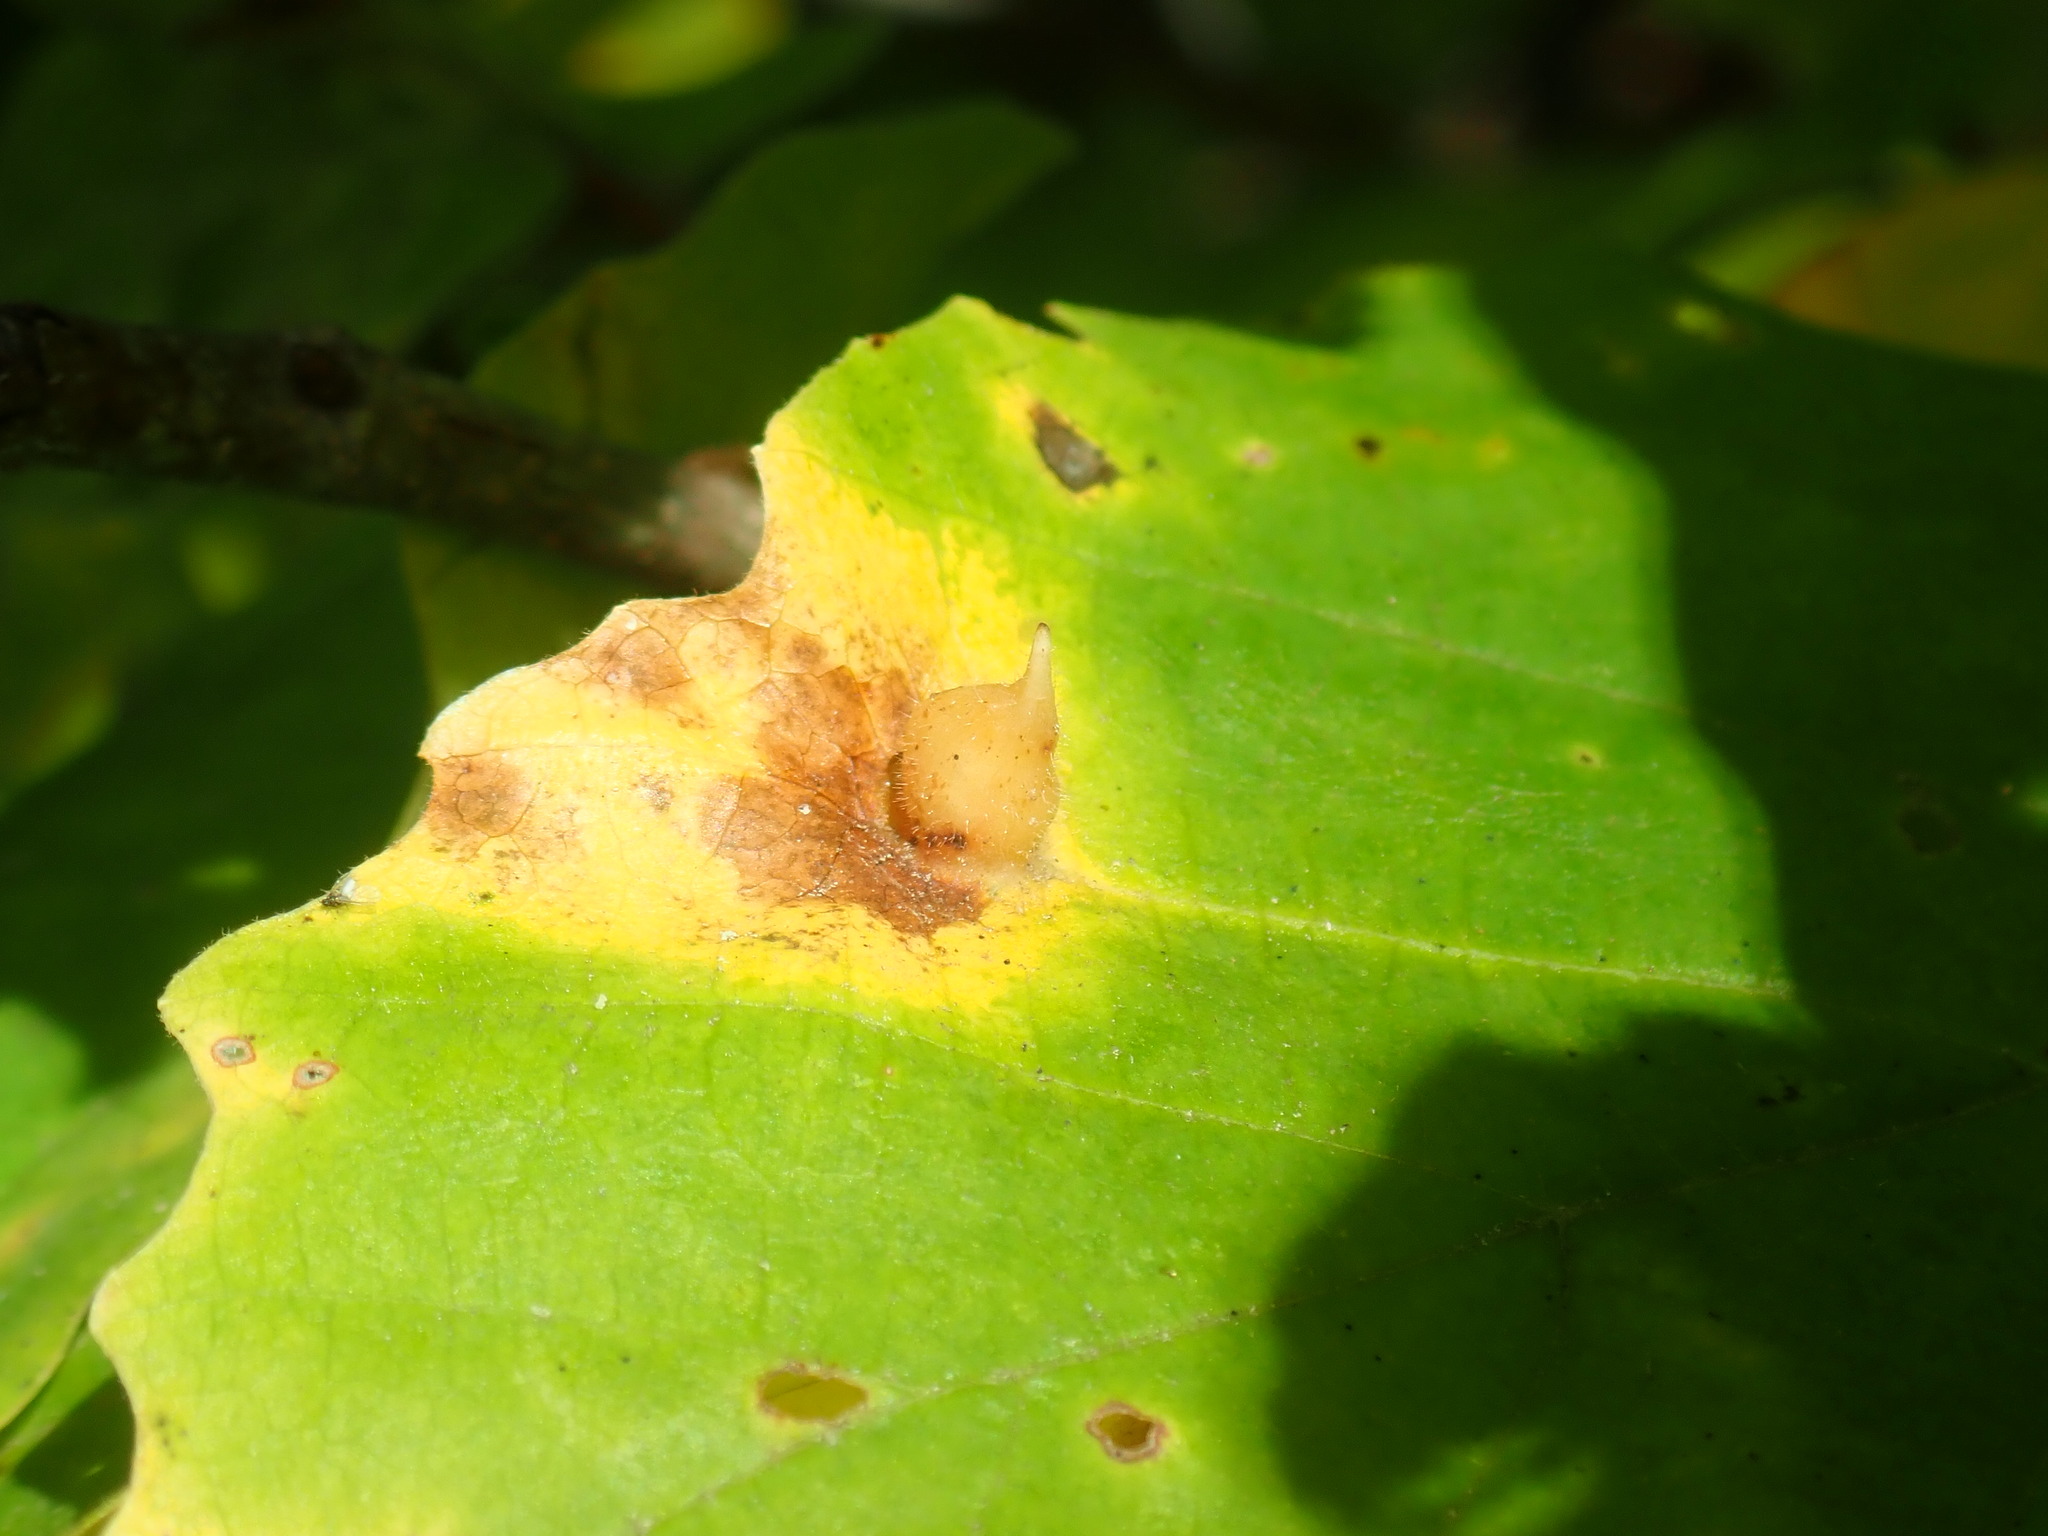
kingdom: Animalia
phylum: Arthropoda
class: Insecta
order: Hemiptera
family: Aphididae
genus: Hormaphis
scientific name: Hormaphis hamamelidis
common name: Witch-hazel cone gall aphid
